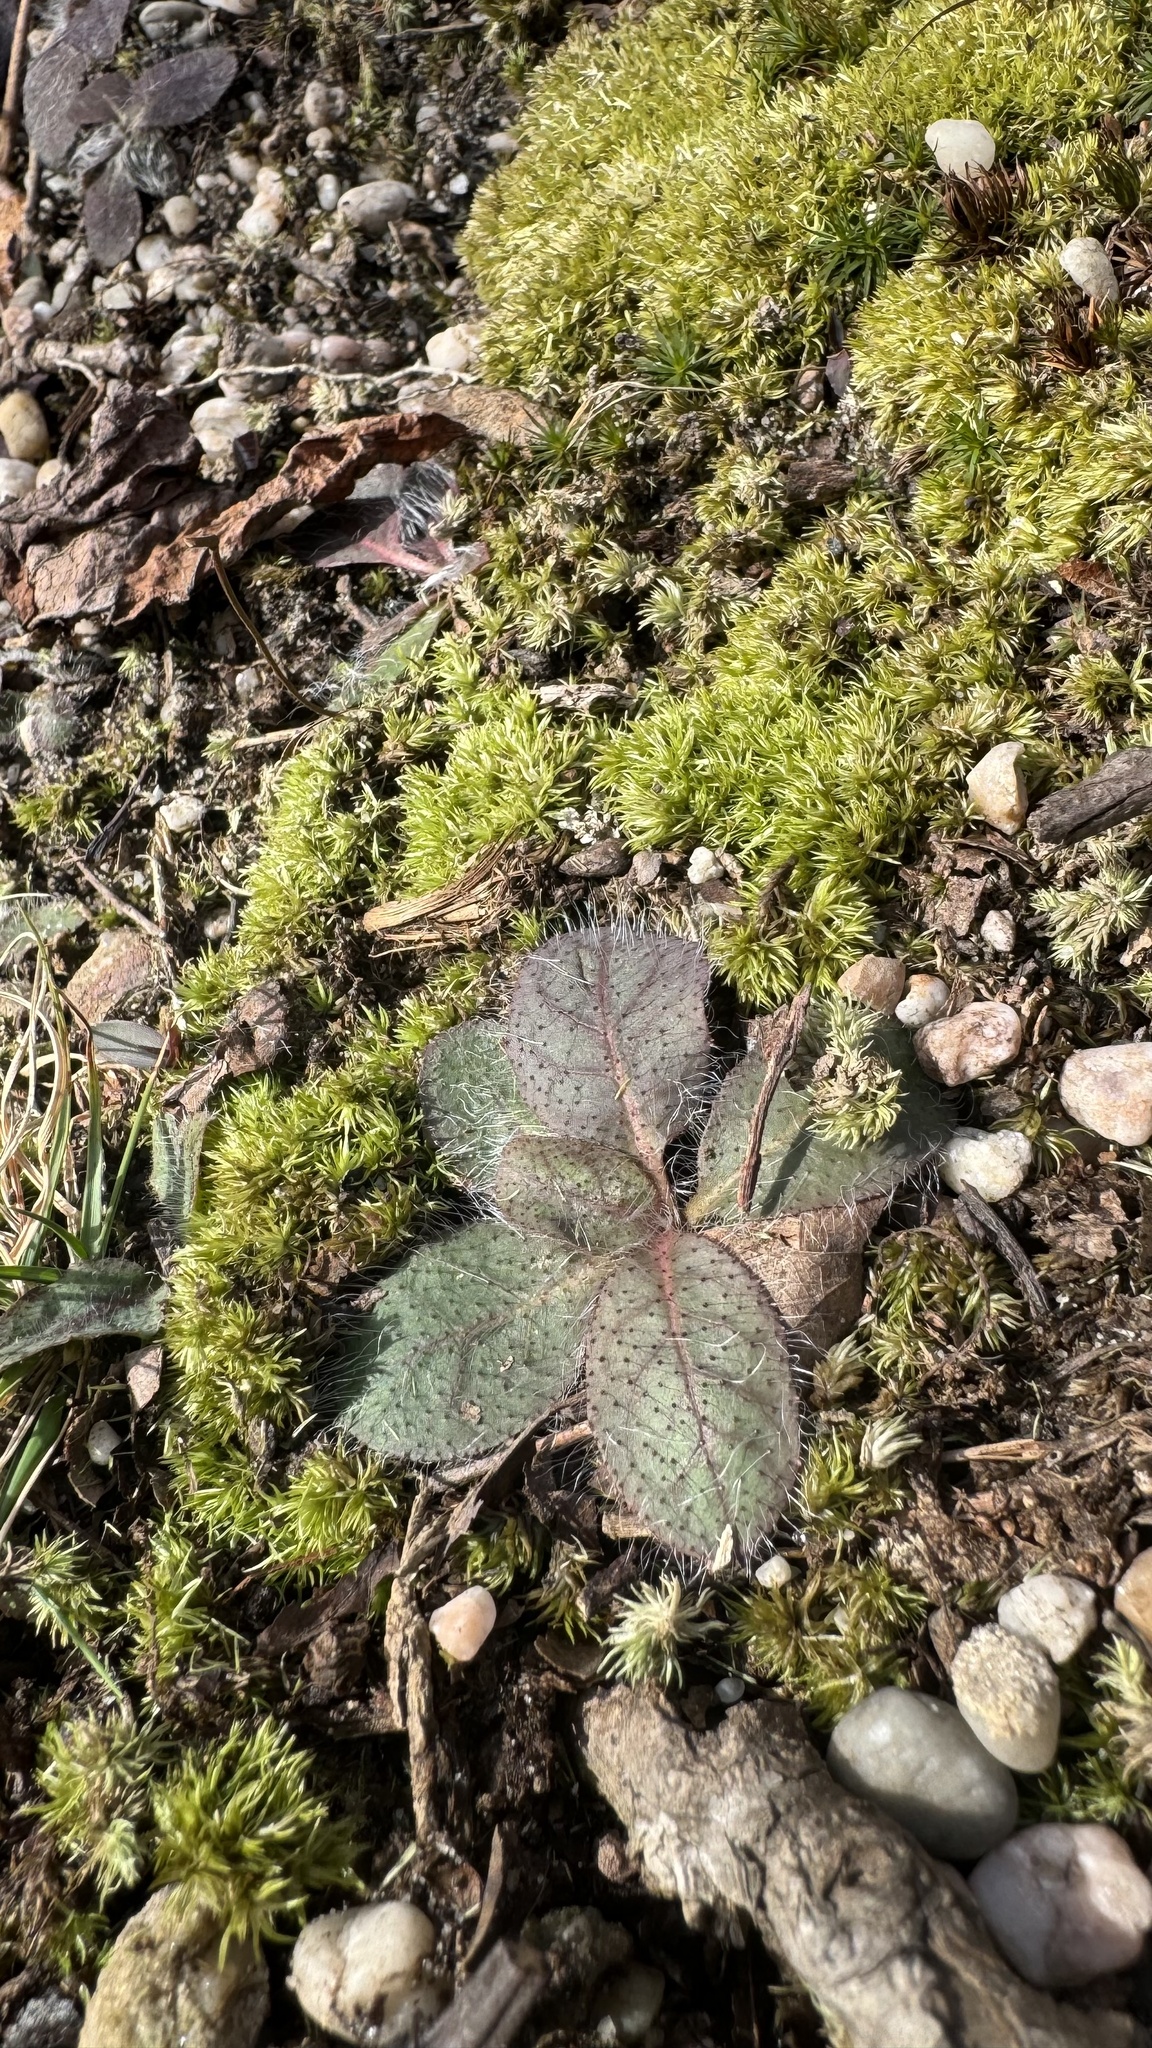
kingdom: Plantae
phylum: Tracheophyta
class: Magnoliopsida
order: Asterales
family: Asteraceae
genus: Hieracium
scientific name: Hieracium venosum
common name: Rattlesnake hawkweed
